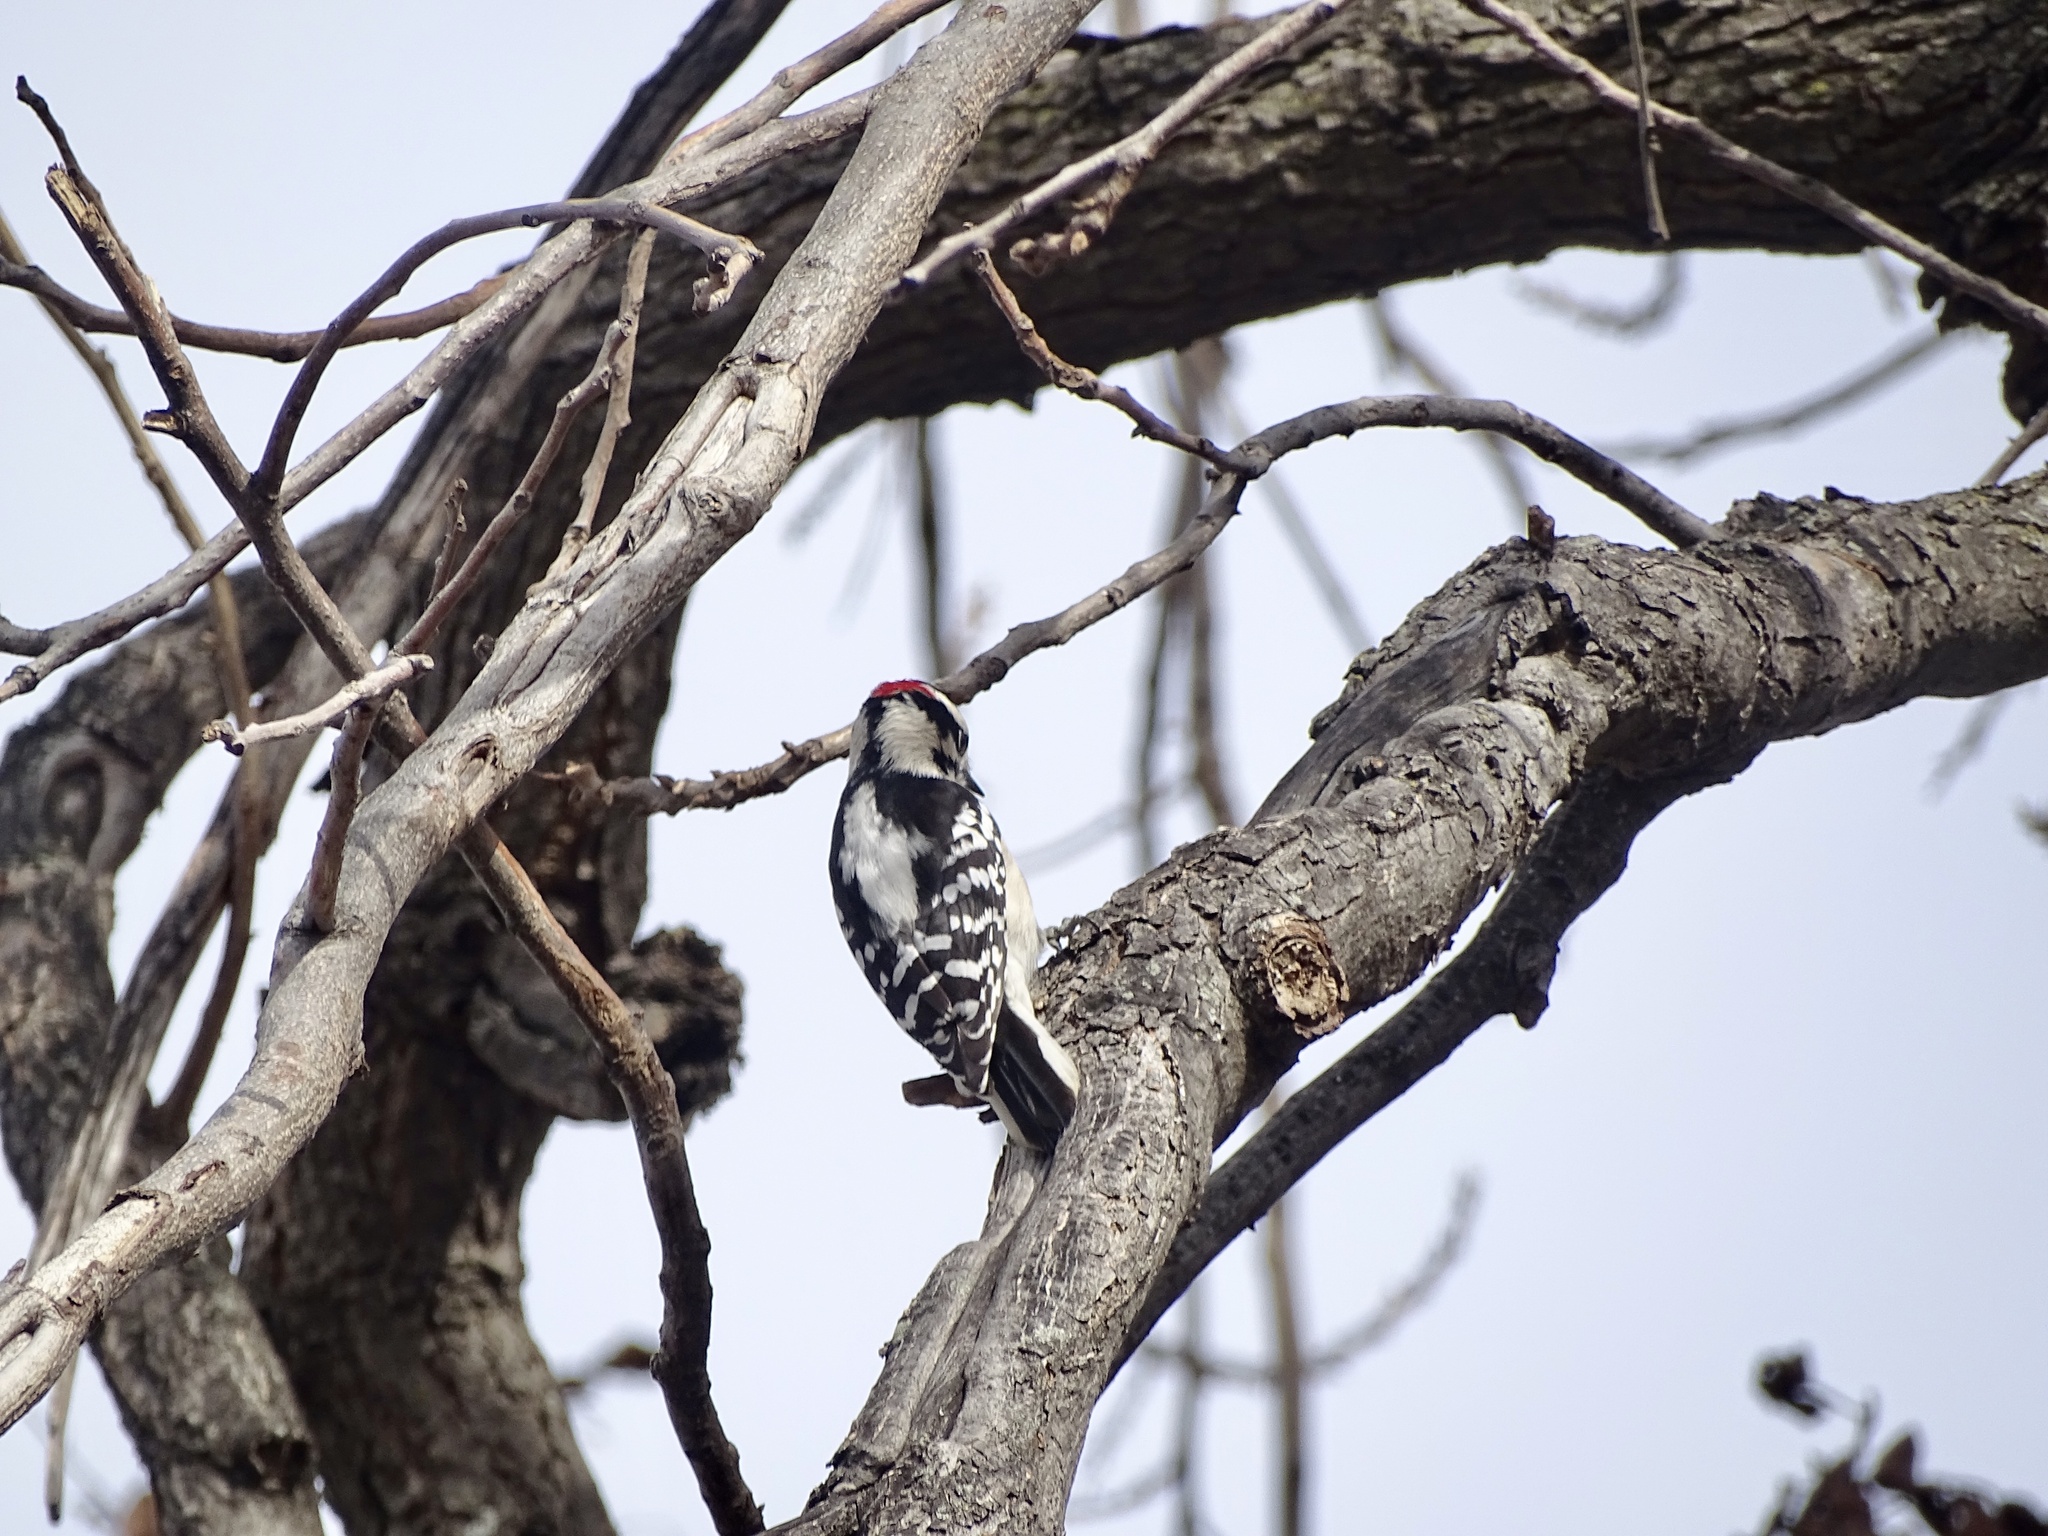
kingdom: Animalia
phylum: Chordata
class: Aves
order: Piciformes
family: Picidae
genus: Dryobates
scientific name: Dryobates pubescens
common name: Downy woodpecker
